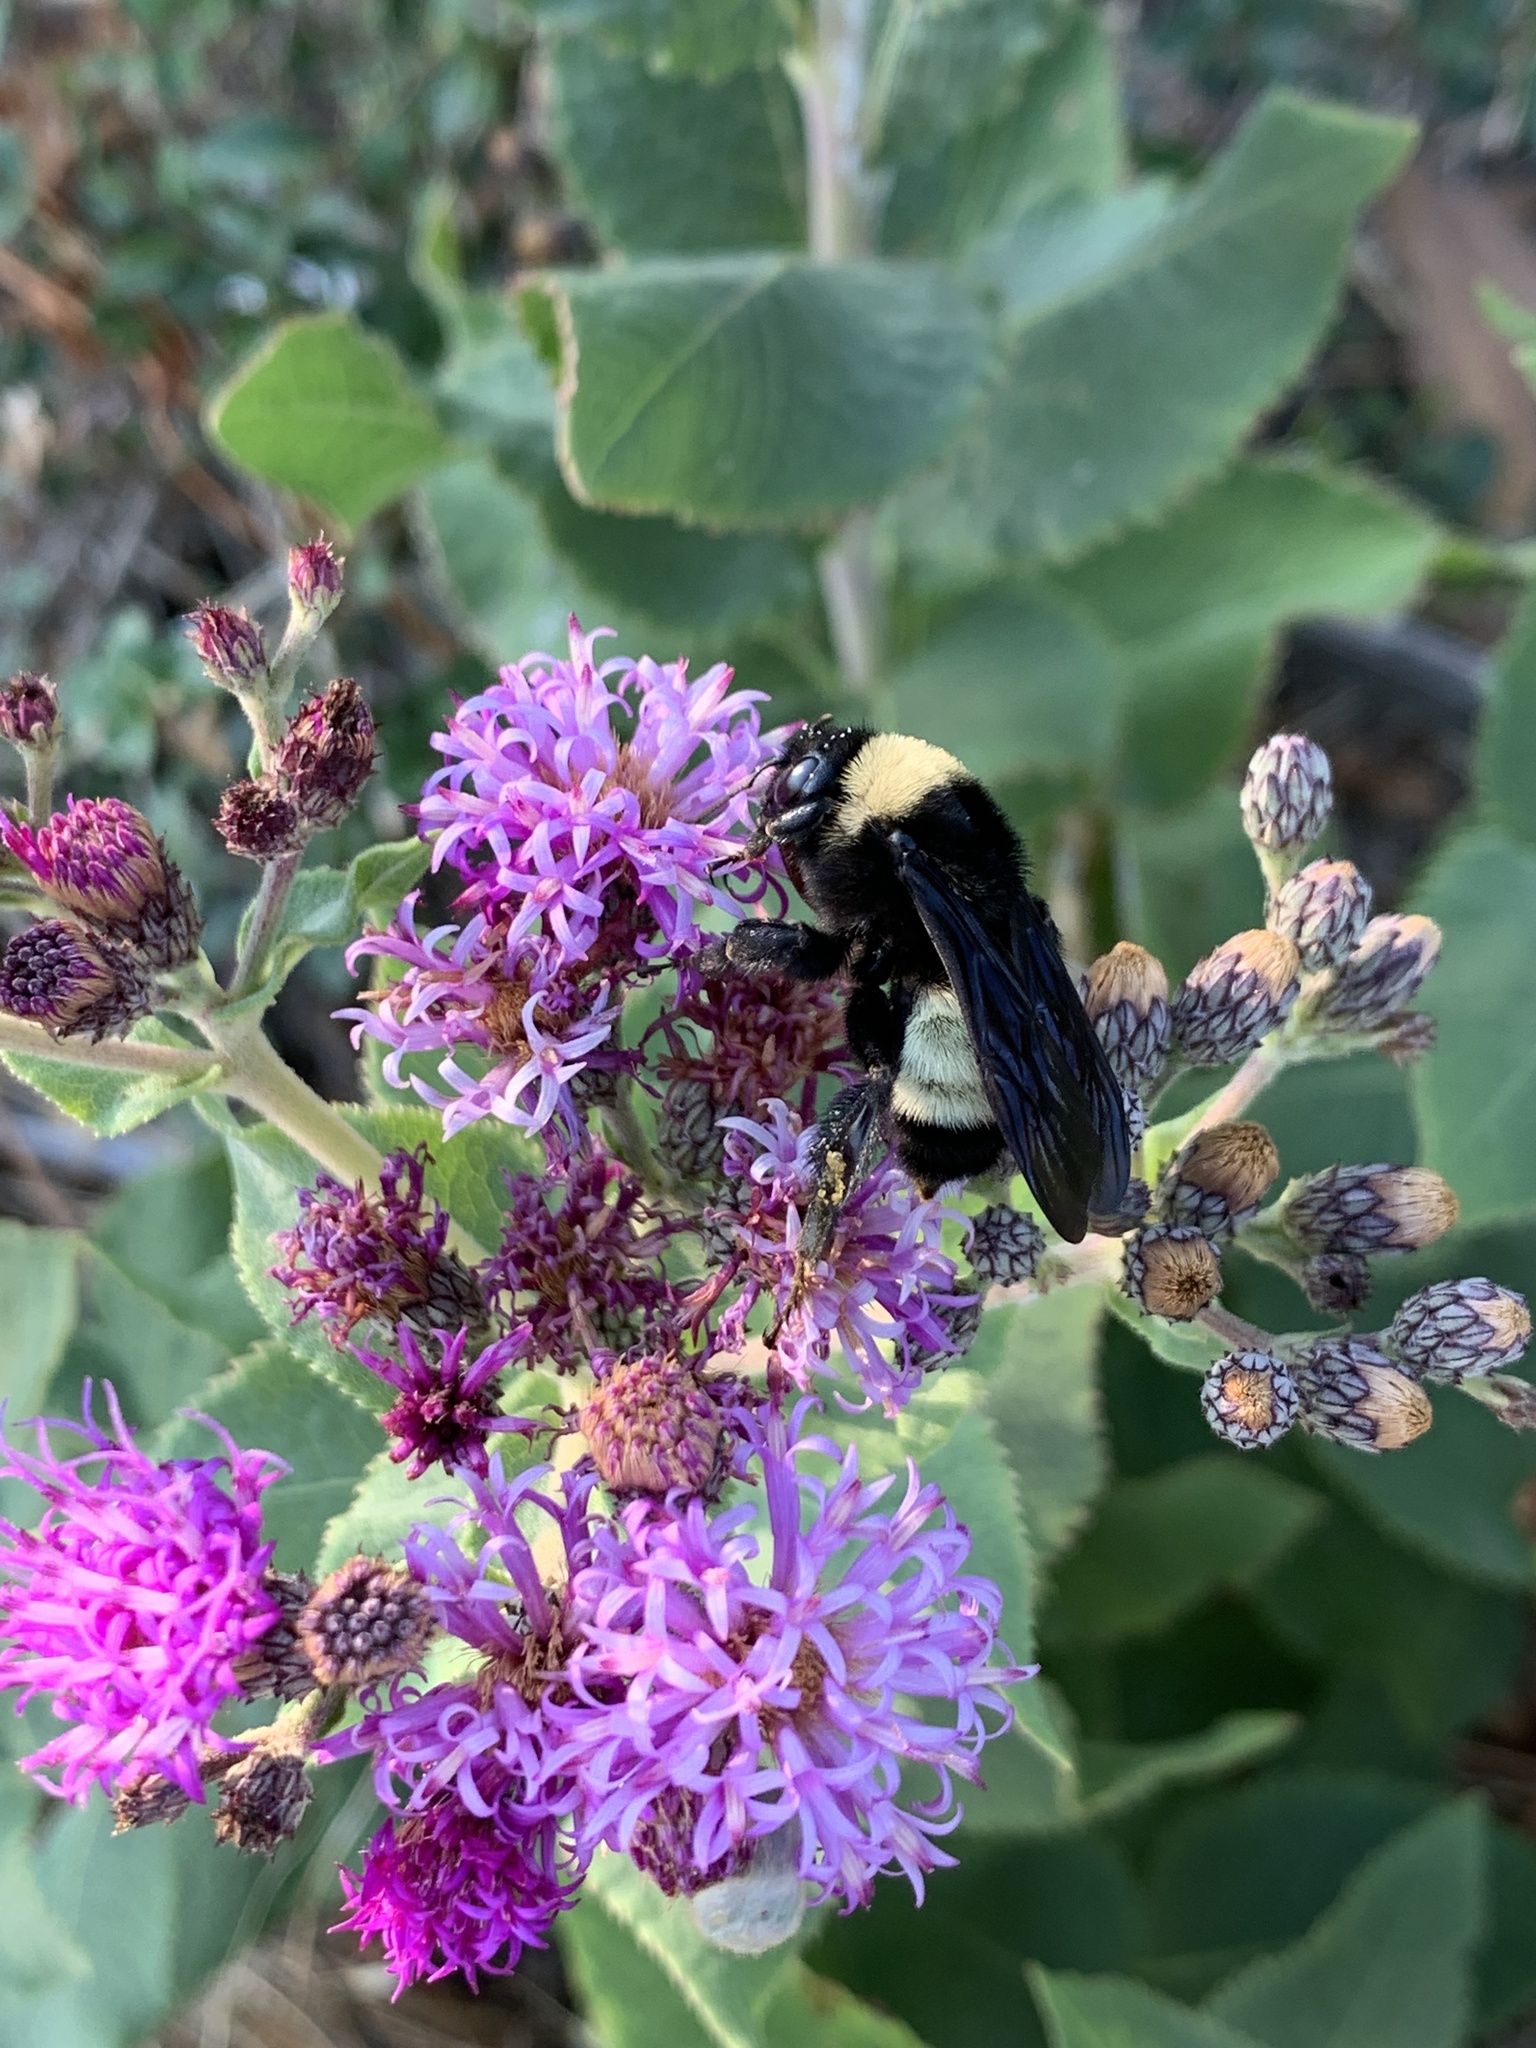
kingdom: Animalia
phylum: Arthropoda
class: Insecta
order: Hymenoptera
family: Apidae
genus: Bombus
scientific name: Bombus pensylvanicus
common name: Bumble bee
